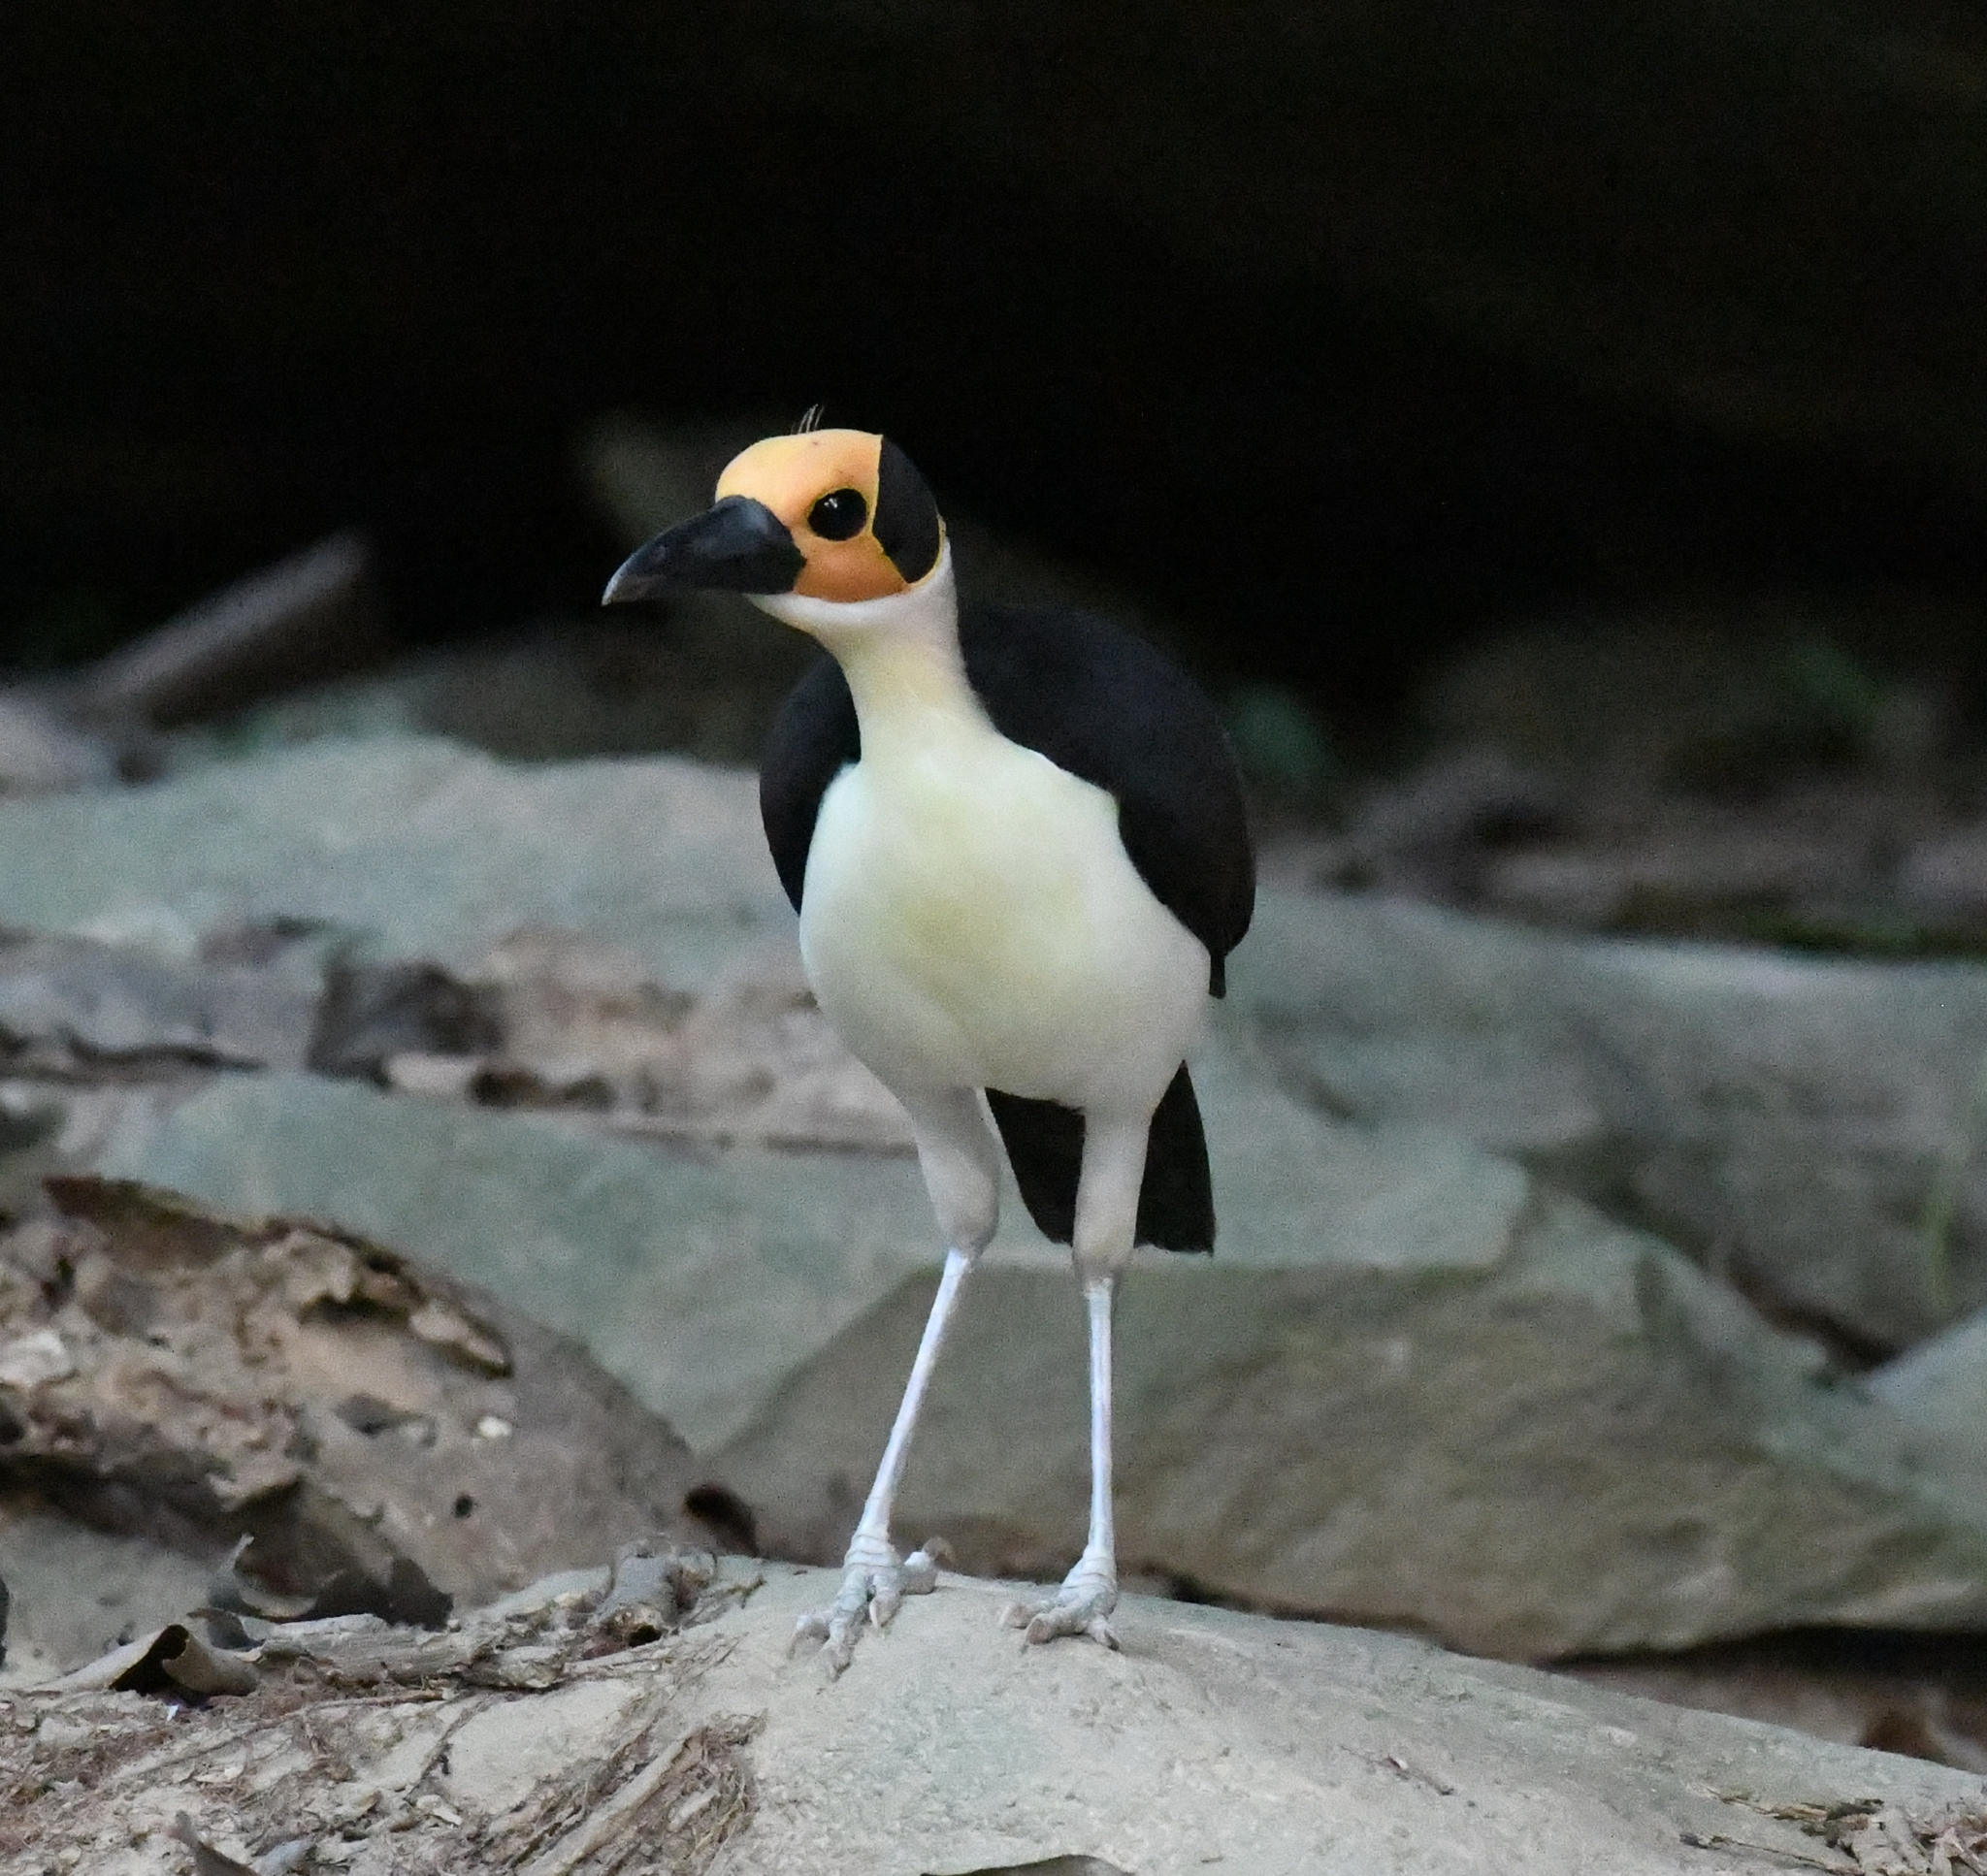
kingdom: Animalia
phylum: Chordata
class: Aves
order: Passeriformes
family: Picathartidae
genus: Picathartes
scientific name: Picathartes gymnocephalus
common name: White-necked rockfowl
